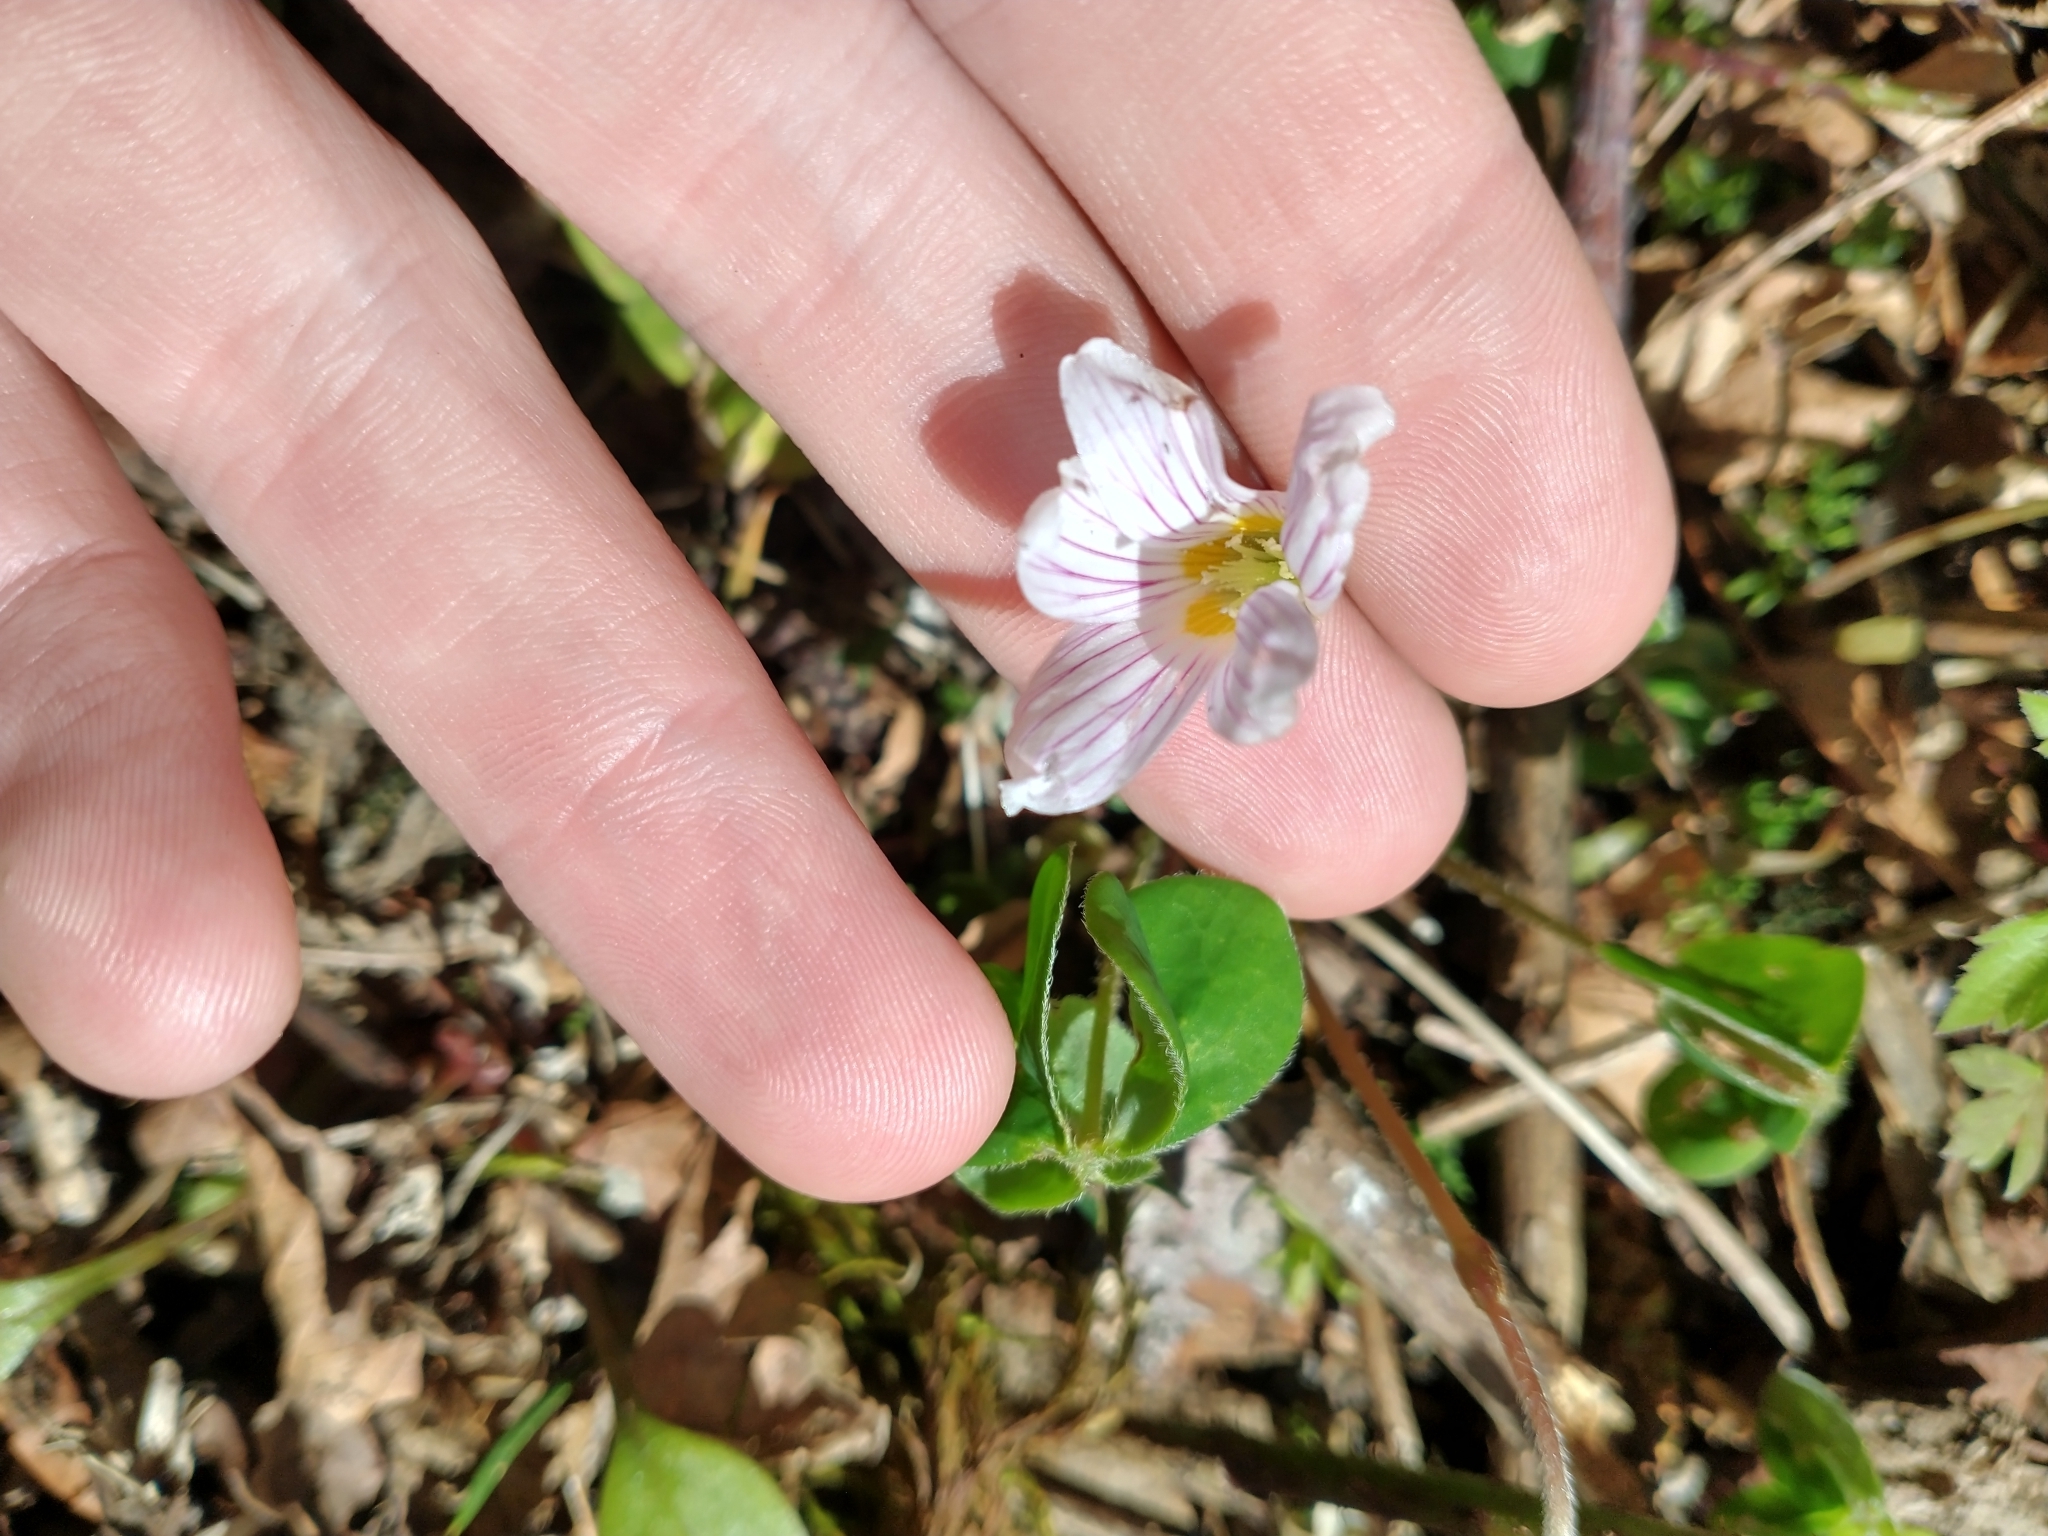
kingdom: Plantae
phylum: Tracheophyta
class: Magnoliopsida
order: Oxalidales
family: Oxalidaceae
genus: Oxalis
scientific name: Oxalis oregana
